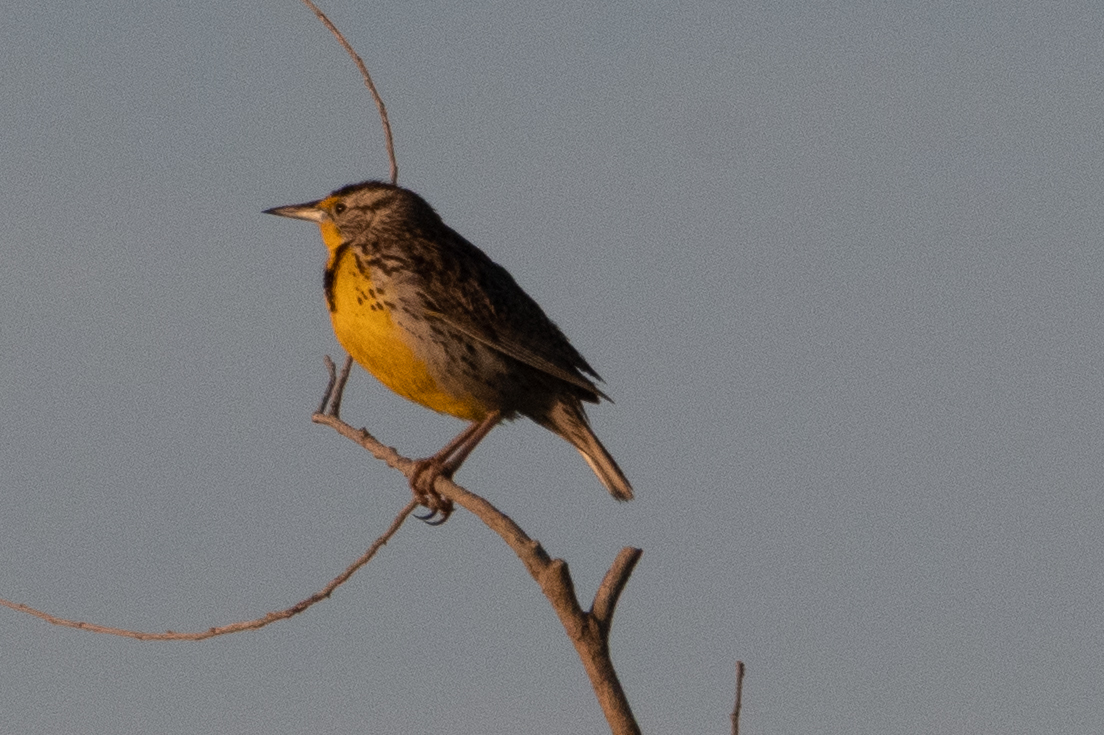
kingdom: Animalia
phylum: Chordata
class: Aves
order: Passeriformes
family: Icteridae
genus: Sturnella
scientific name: Sturnella neglecta
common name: Western meadowlark
